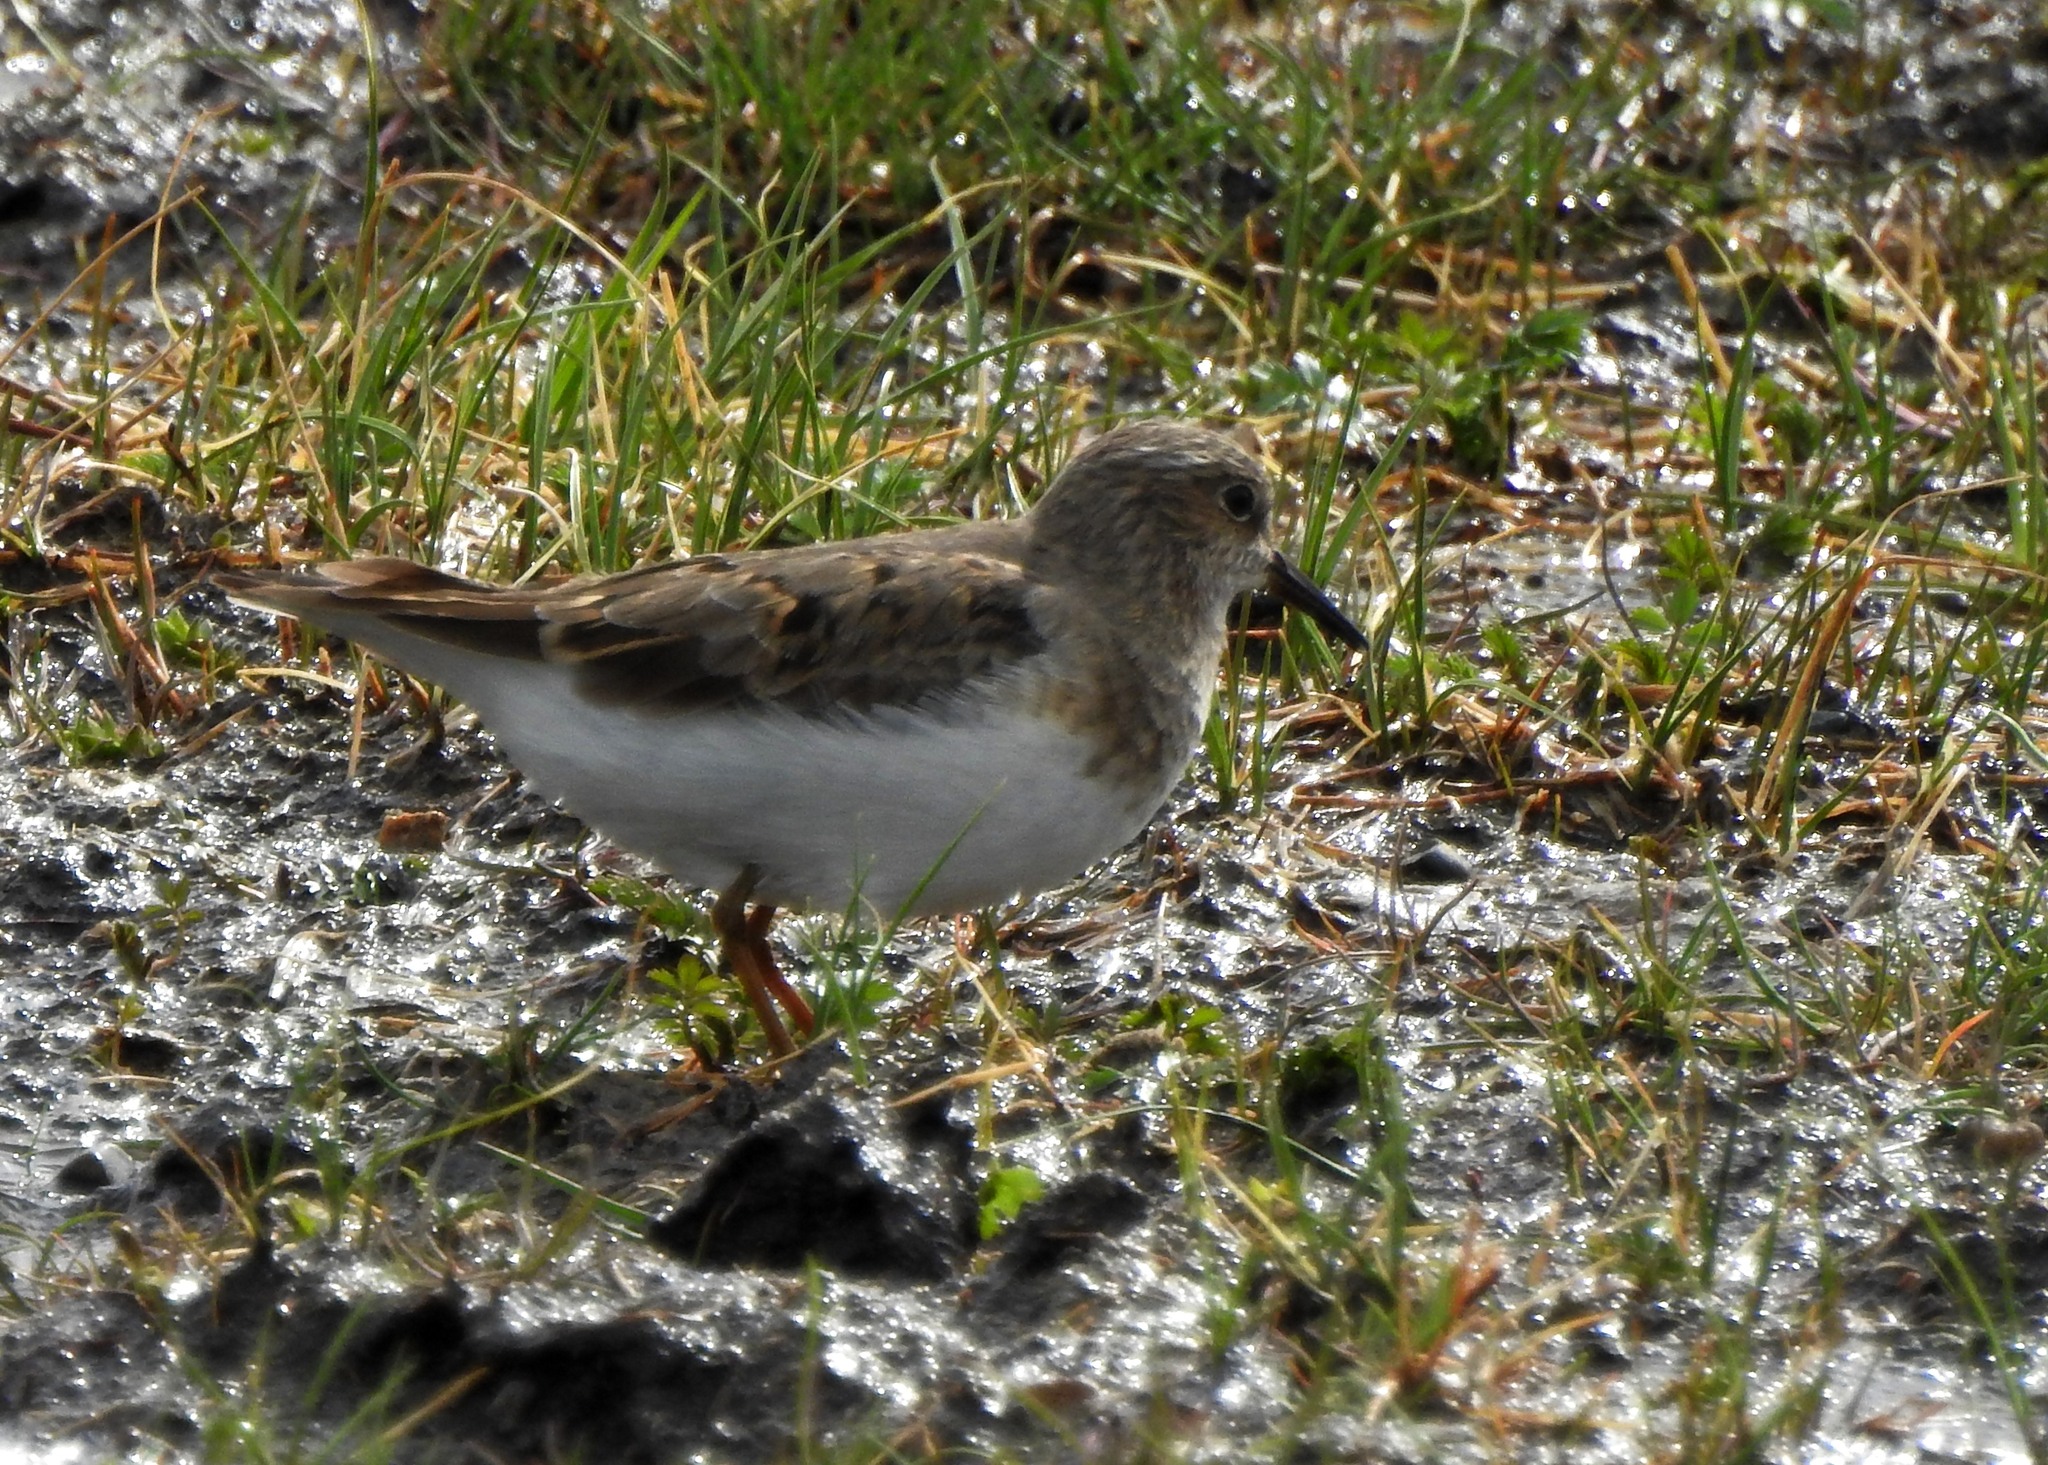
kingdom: Animalia
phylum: Chordata
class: Aves
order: Charadriiformes
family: Scolopacidae
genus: Calidris
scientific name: Calidris temminckii
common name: Temminck's stint
